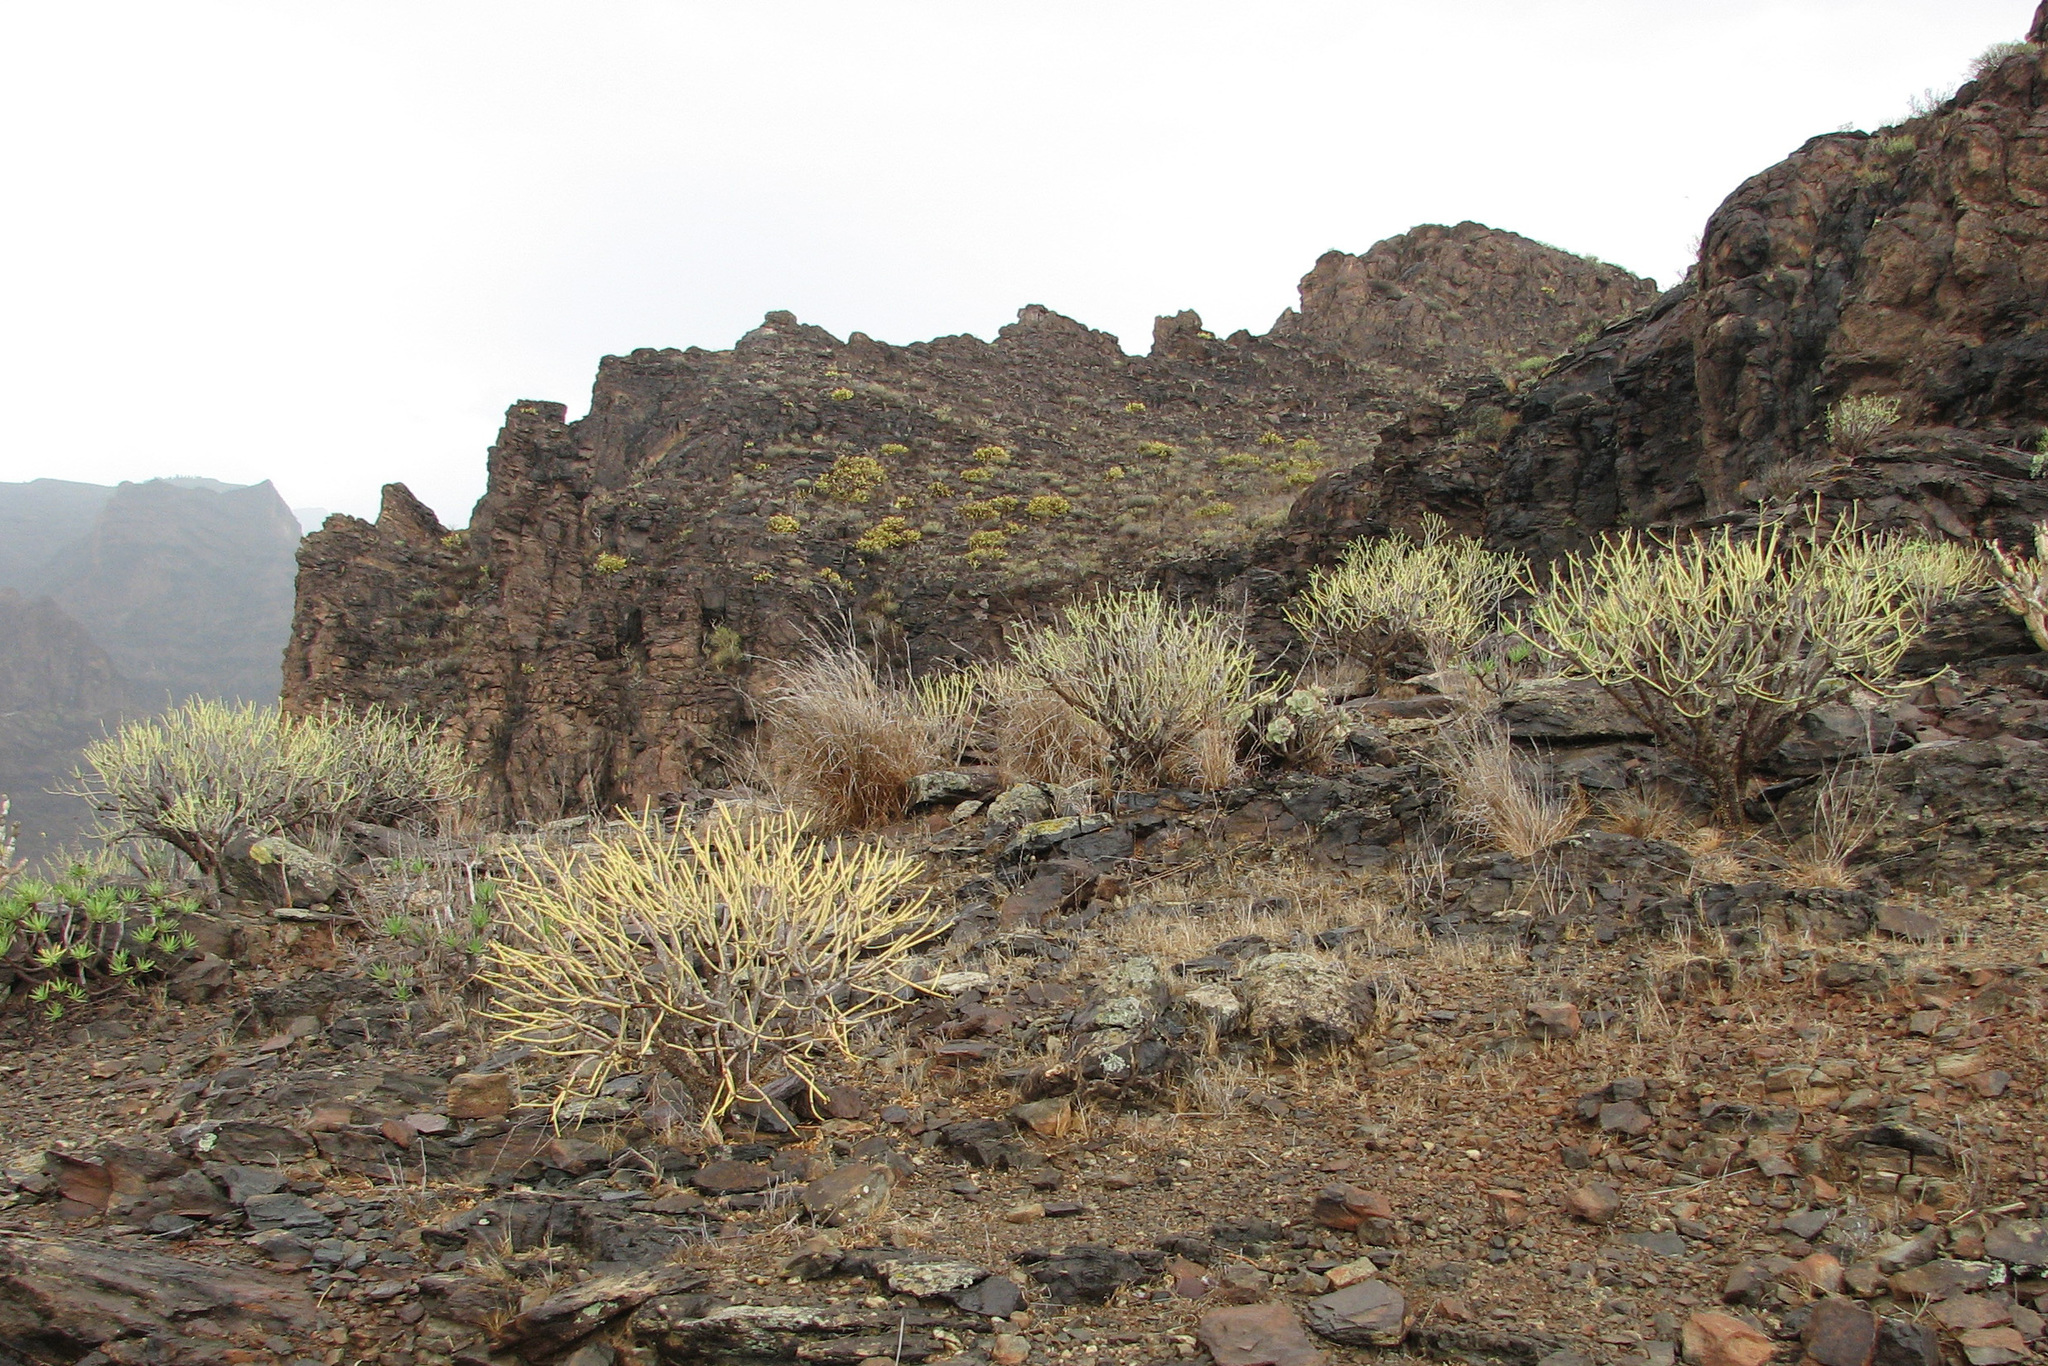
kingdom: Plantae
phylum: Tracheophyta
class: Magnoliopsida
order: Malpighiales
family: Euphorbiaceae
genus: Euphorbia
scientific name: Euphorbia regis-jubae
